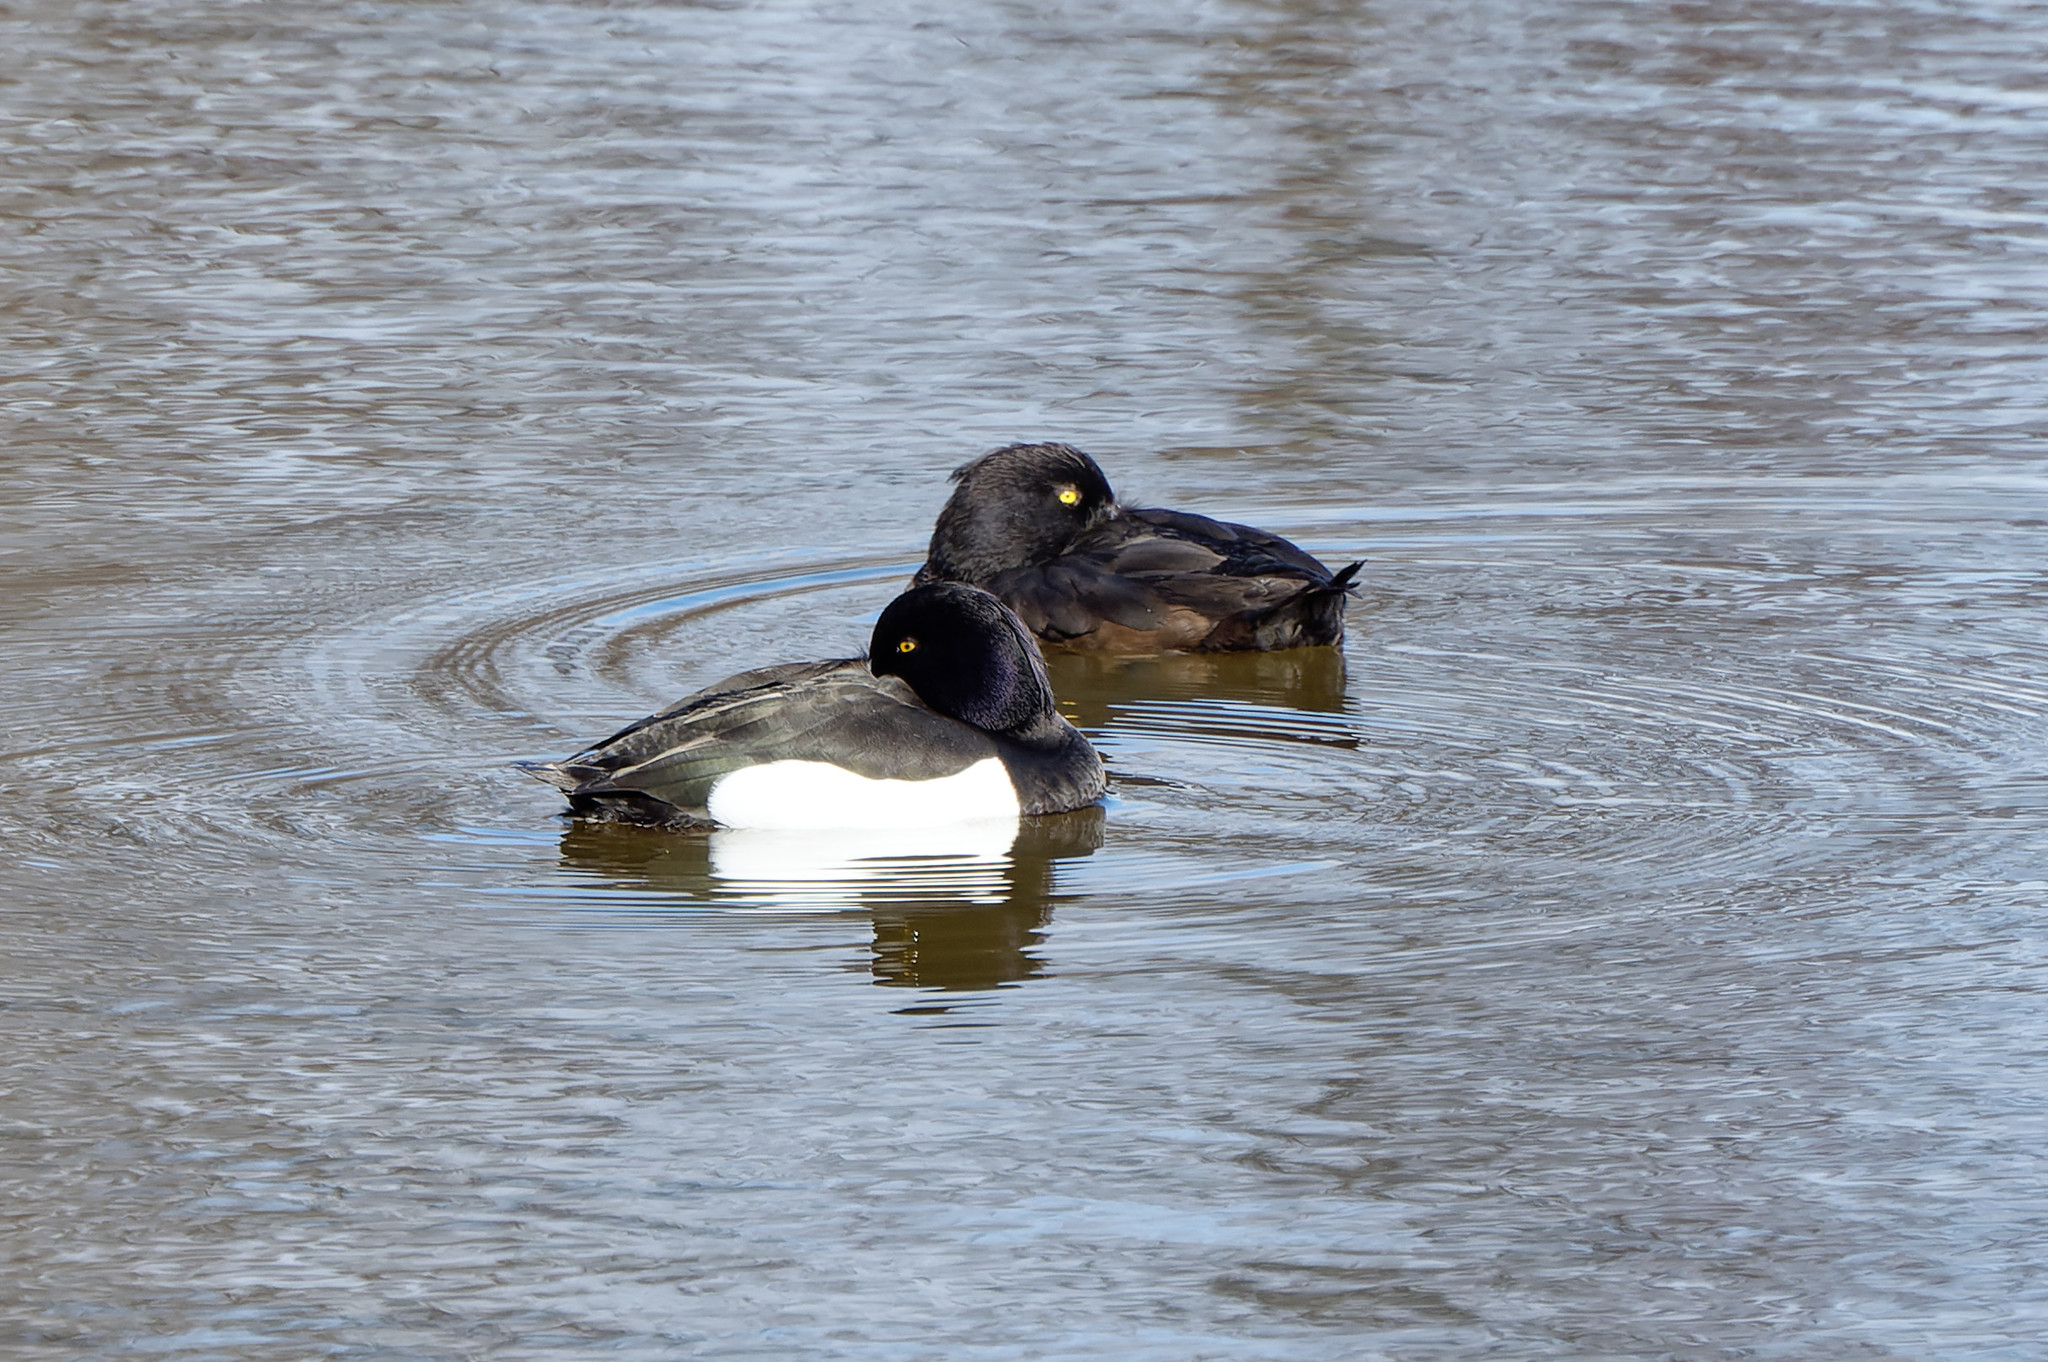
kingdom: Animalia
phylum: Chordata
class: Aves
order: Anseriformes
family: Anatidae
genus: Aythya
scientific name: Aythya fuligula
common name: Tufted duck
